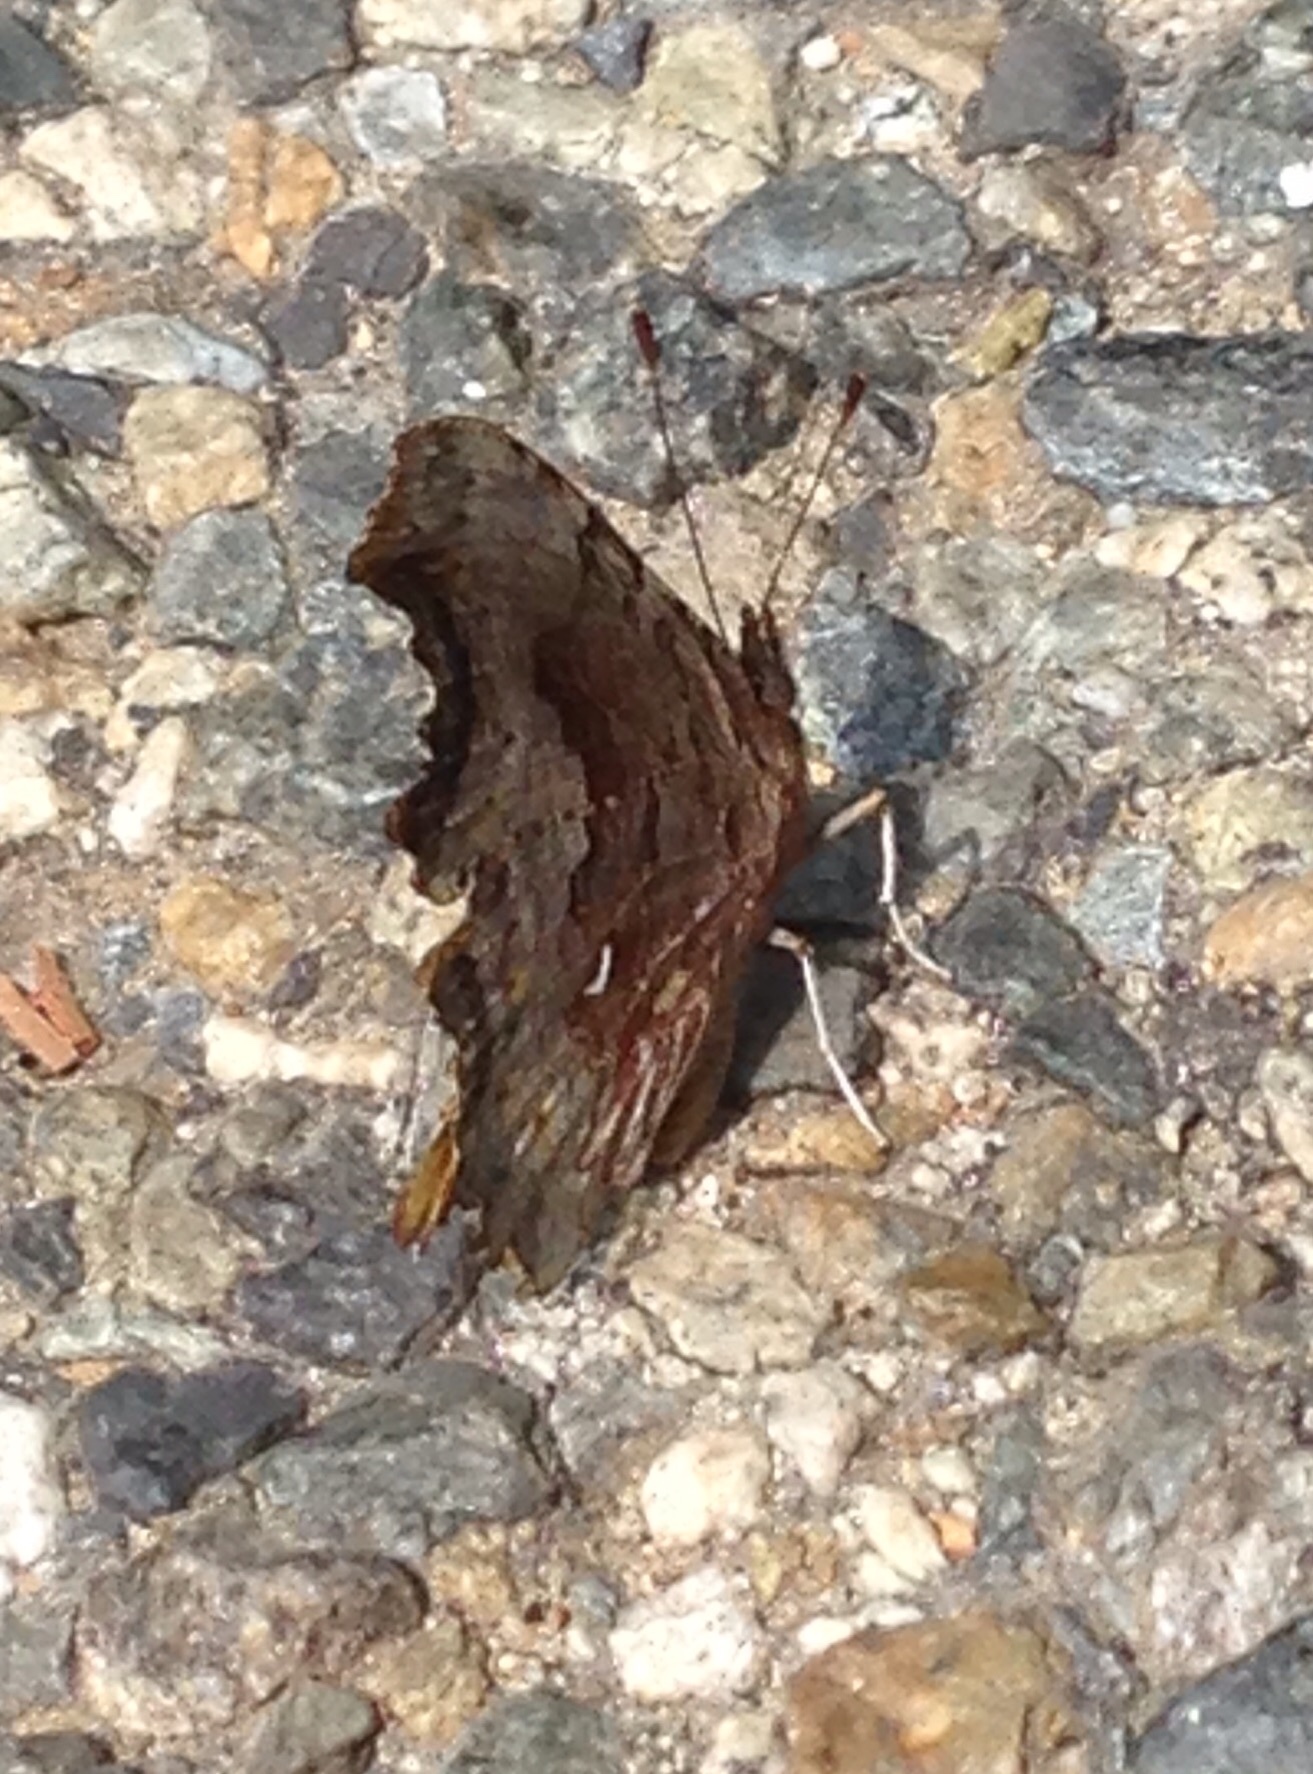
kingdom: Animalia
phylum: Arthropoda
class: Insecta
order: Lepidoptera
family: Nymphalidae
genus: Polygonia
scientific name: Polygonia gracilis
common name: Hoary comma
